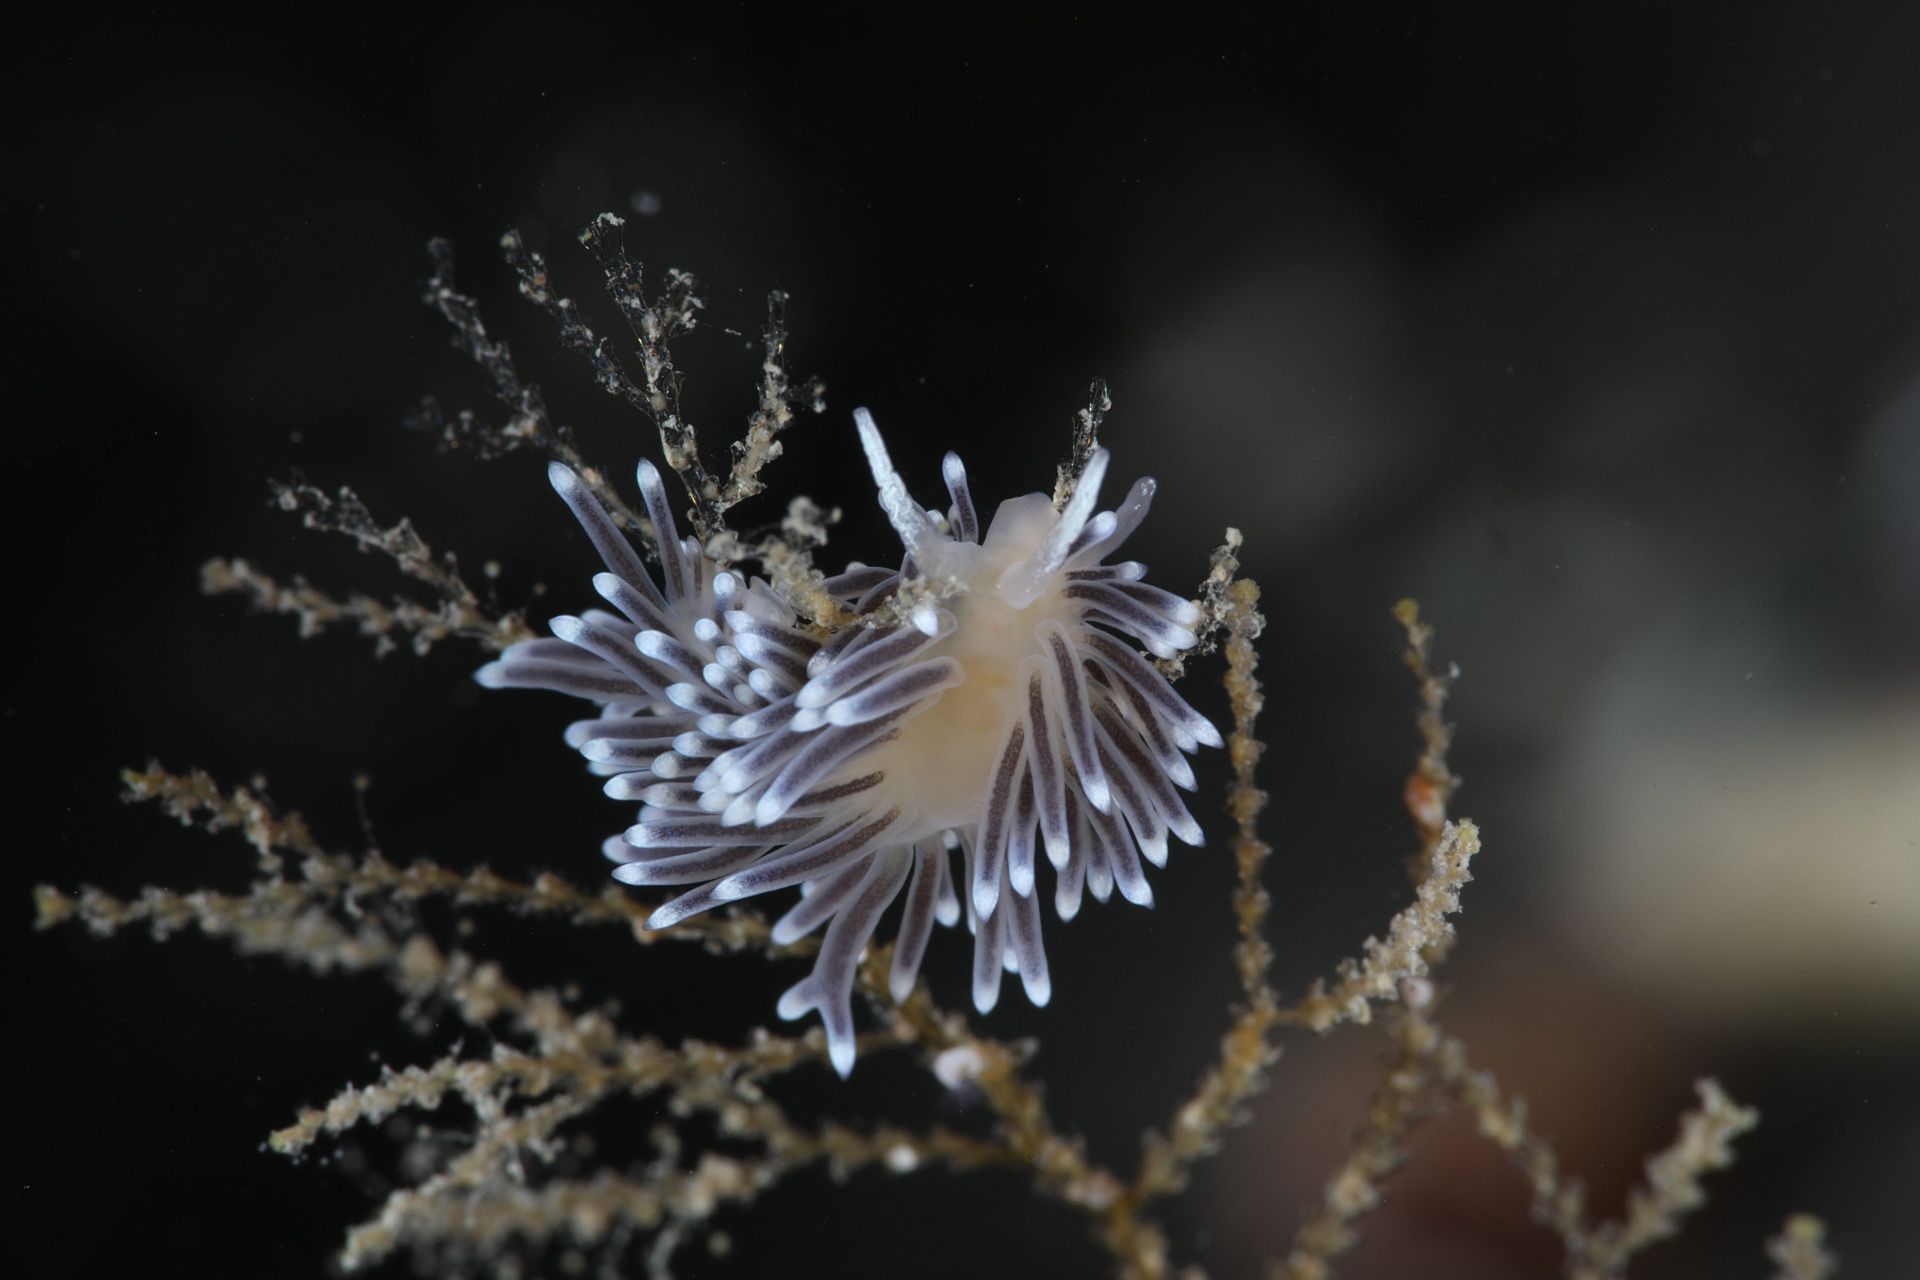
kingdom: Animalia
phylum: Mollusca
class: Gastropoda
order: Nudibranchia
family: Cuthonellidae
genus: Cuthonella
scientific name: Cuthonella concinna
